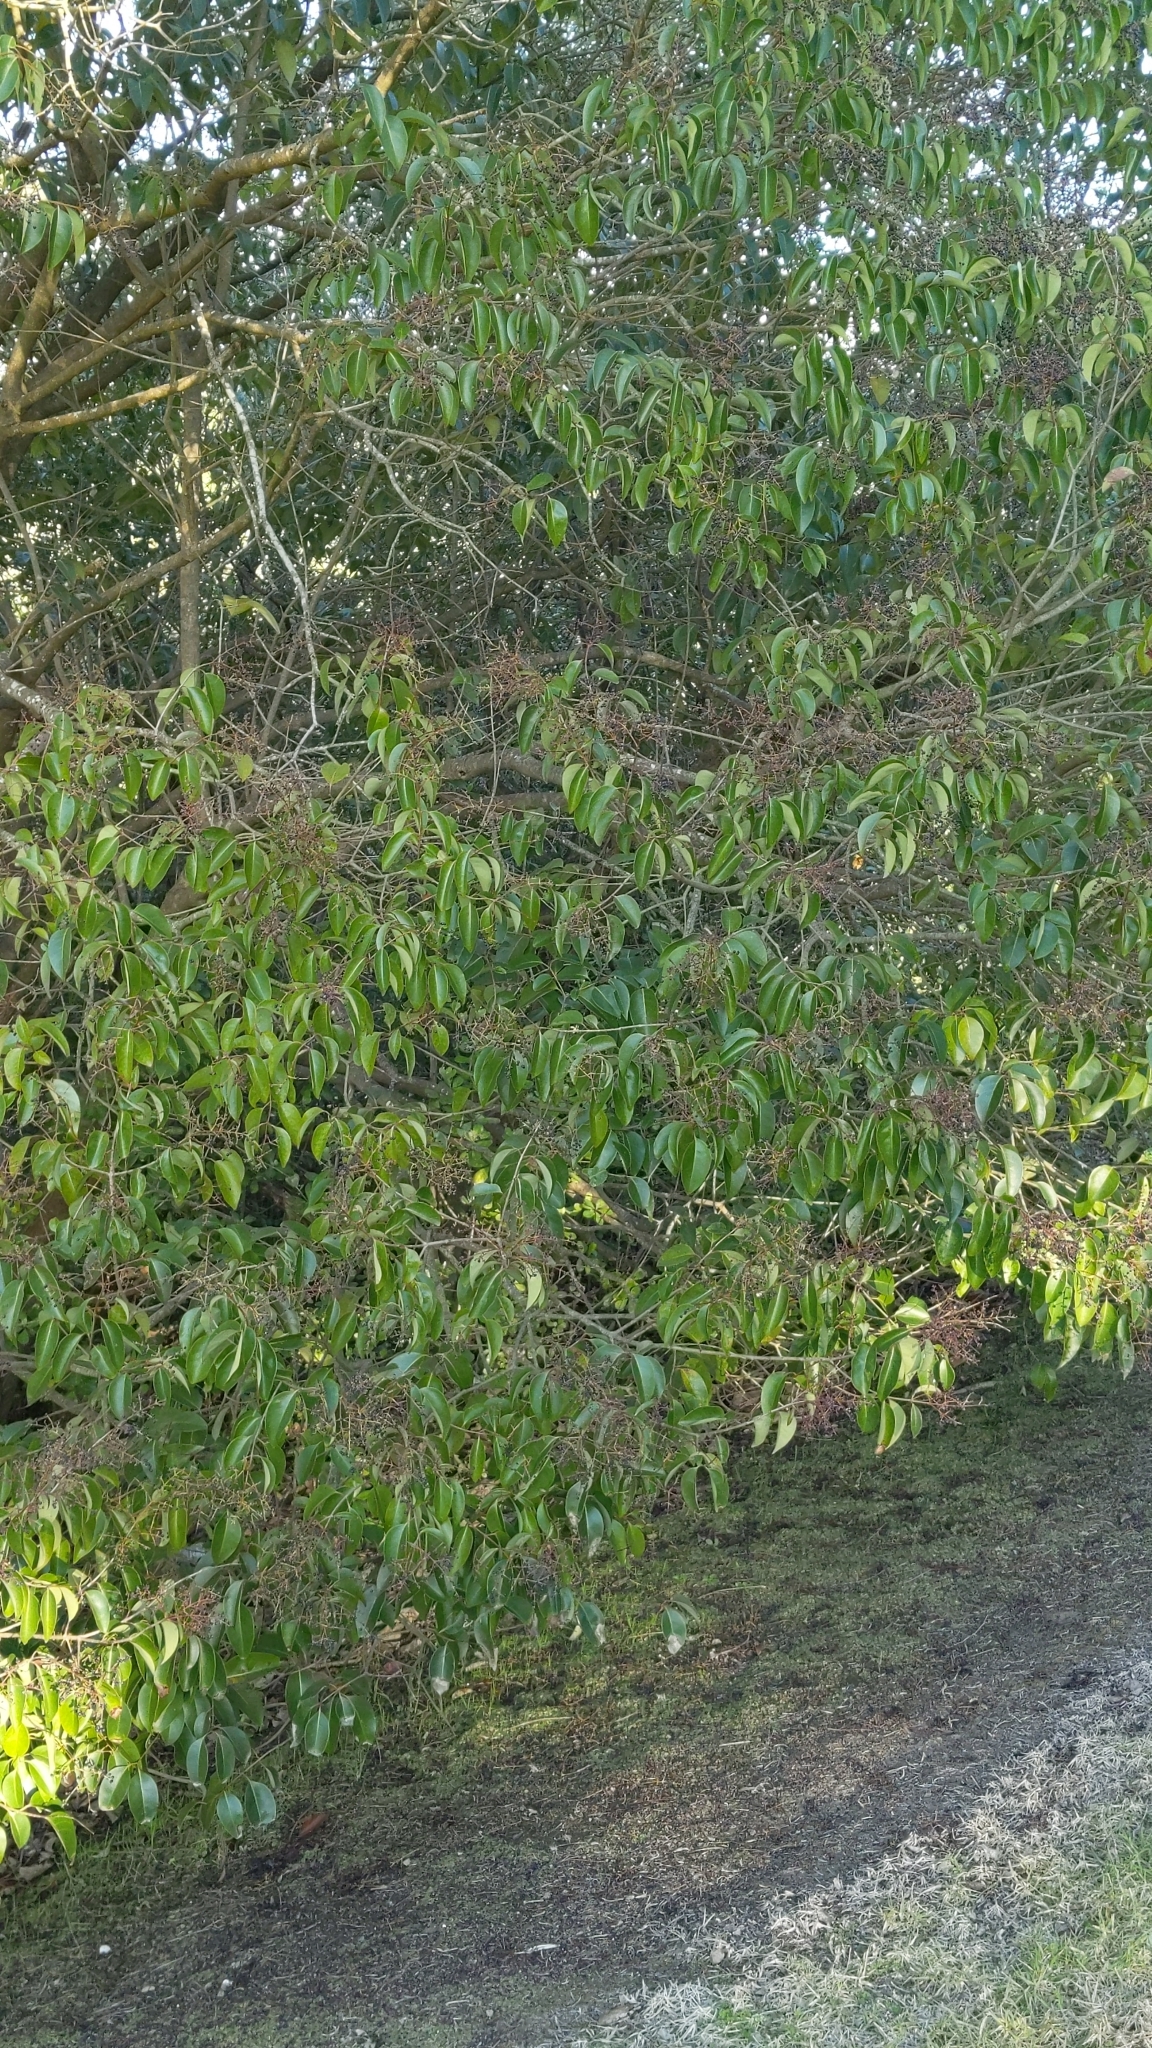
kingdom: Plantae
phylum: Tracheophyta
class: Magnoliopsida
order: Lamiales
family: Oleaceae
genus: Ligustrum
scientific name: Ligustrum lucidum
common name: Glossy privet
